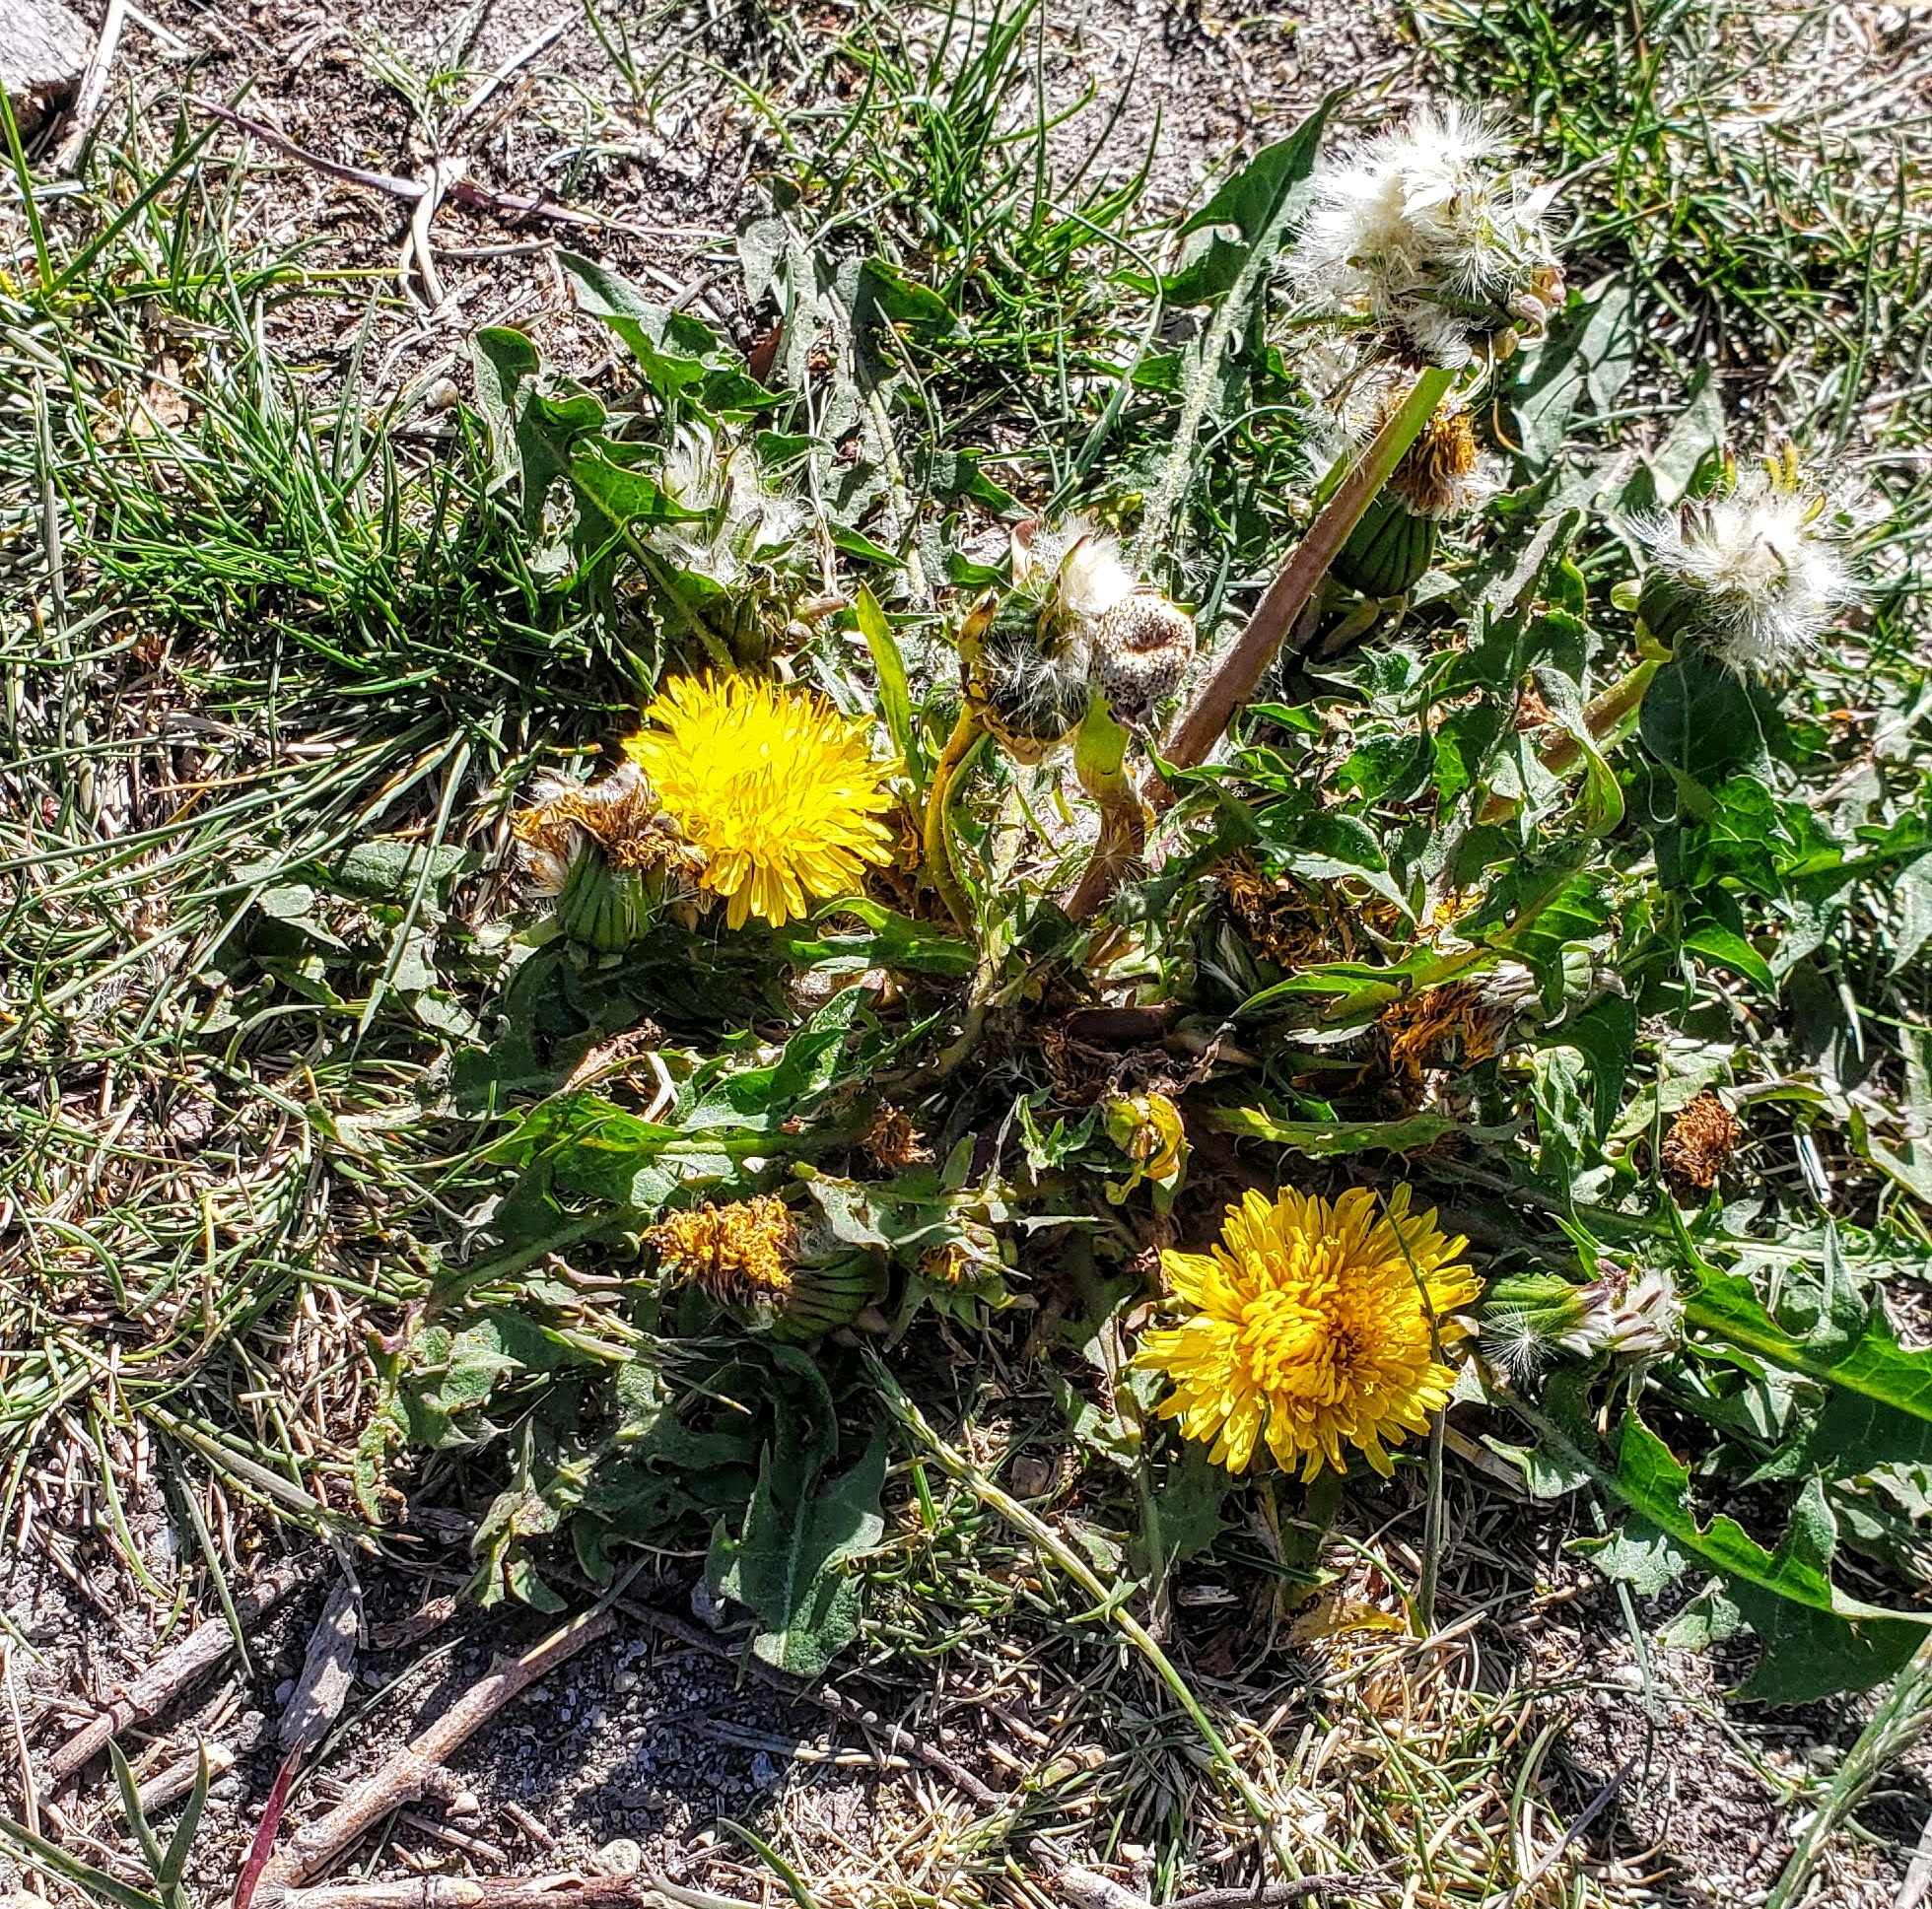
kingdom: Plantae
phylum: Tracheophyta
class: Magnoliopsida
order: Asterales
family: Asteraceae
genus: Taraxacum
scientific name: Taraxacum officinale
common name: Common dandelion
